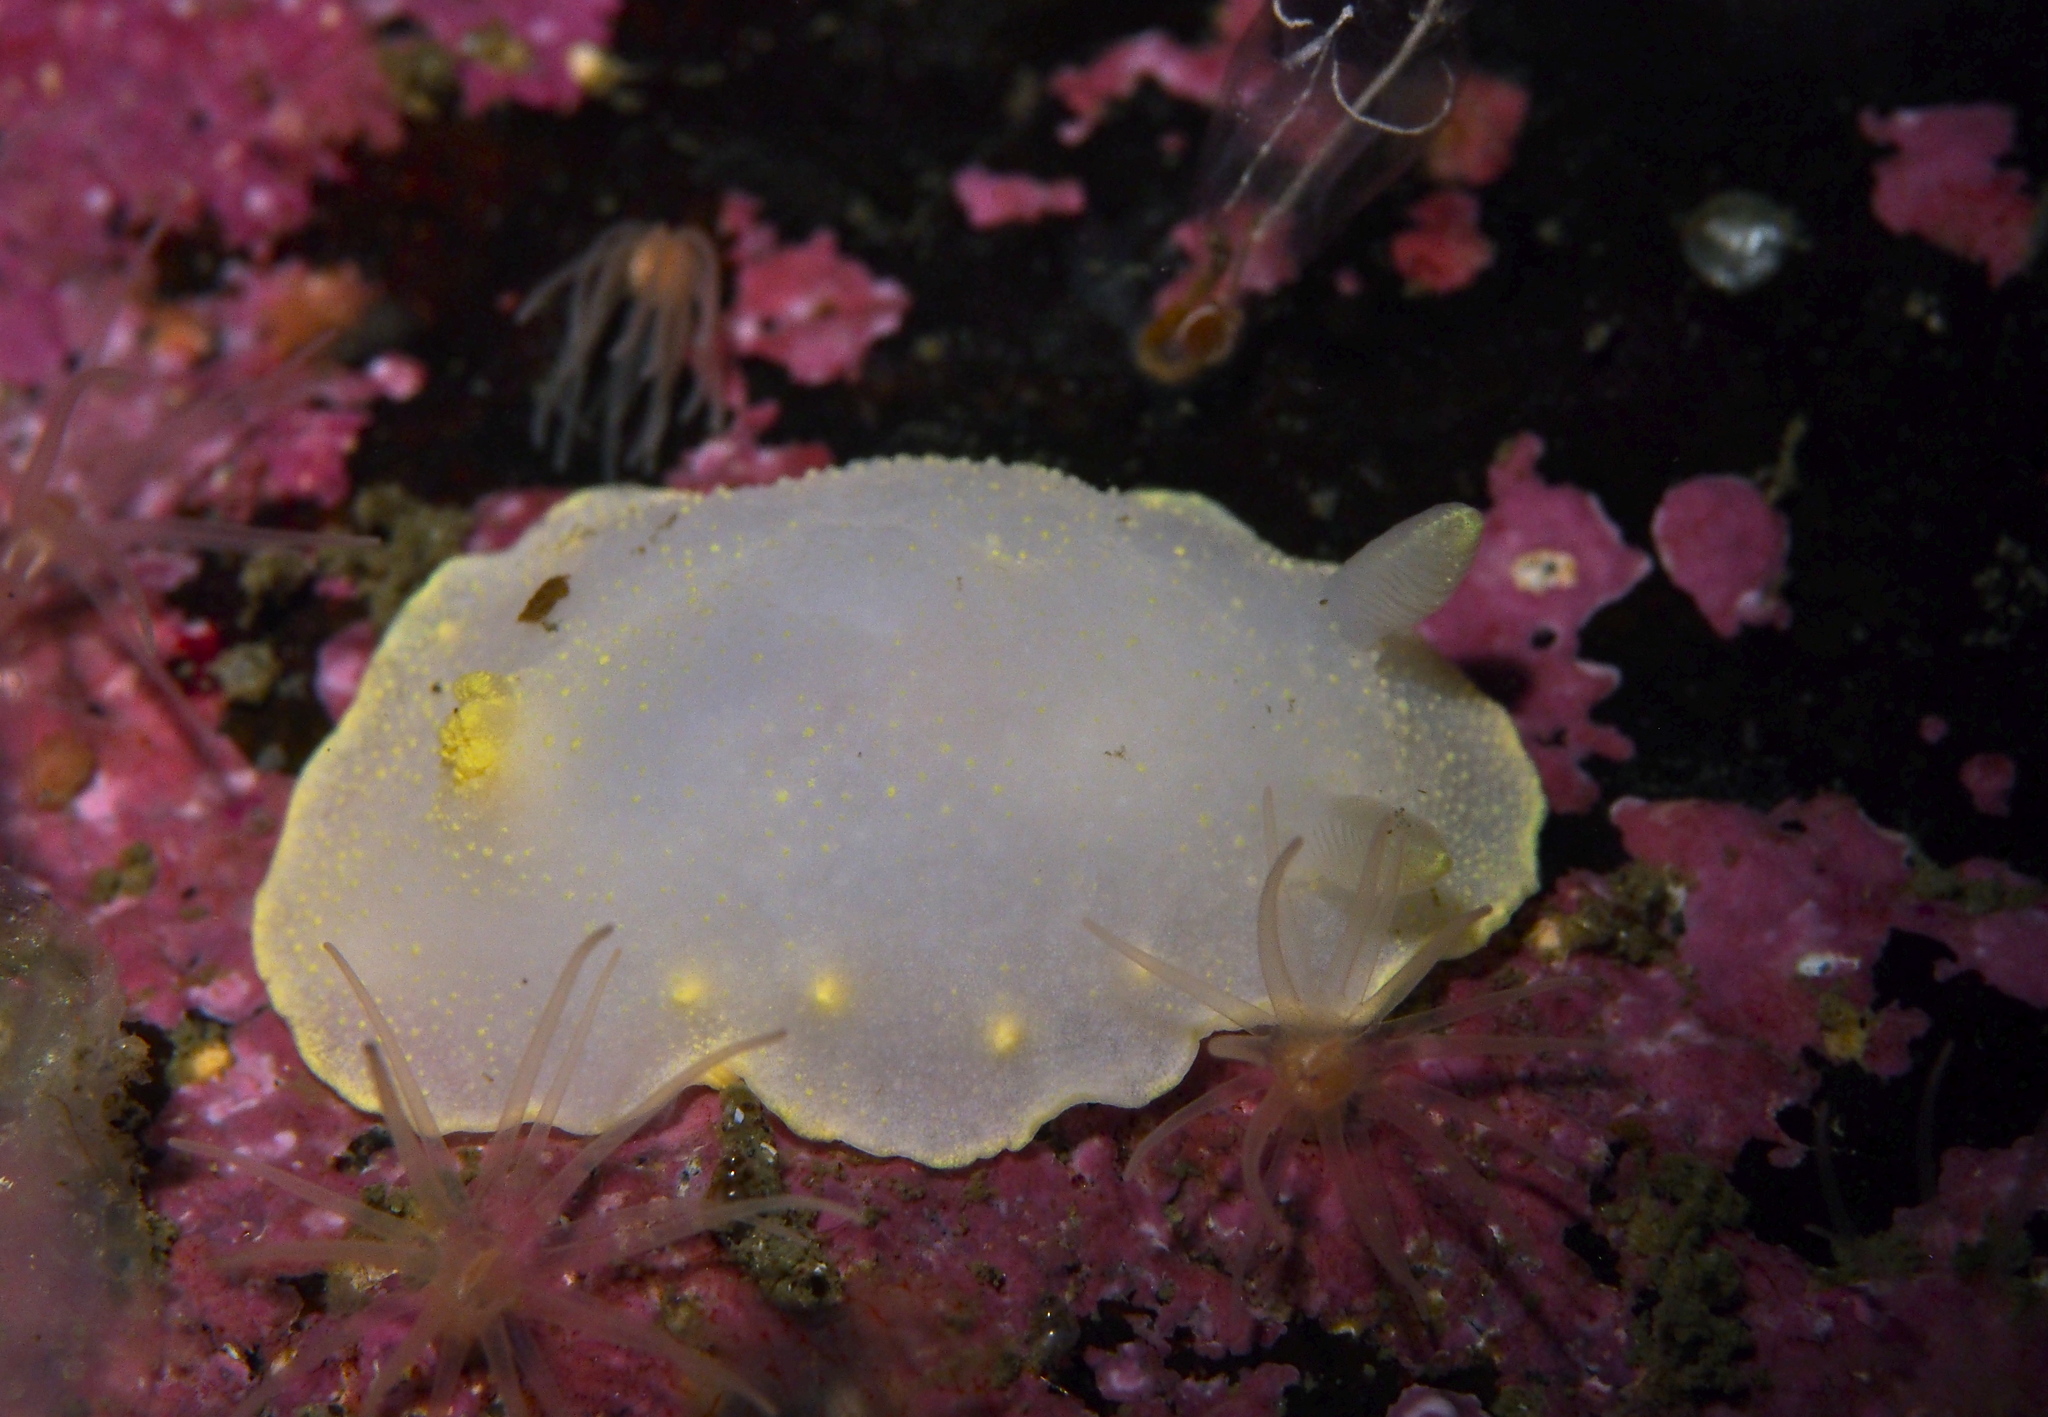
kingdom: Animalia
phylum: Mollusca
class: Gastropoda
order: Nudibranchia
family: Cadlinidae
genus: Cadlina
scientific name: Cadlina laevis
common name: White atlantic cadlina
